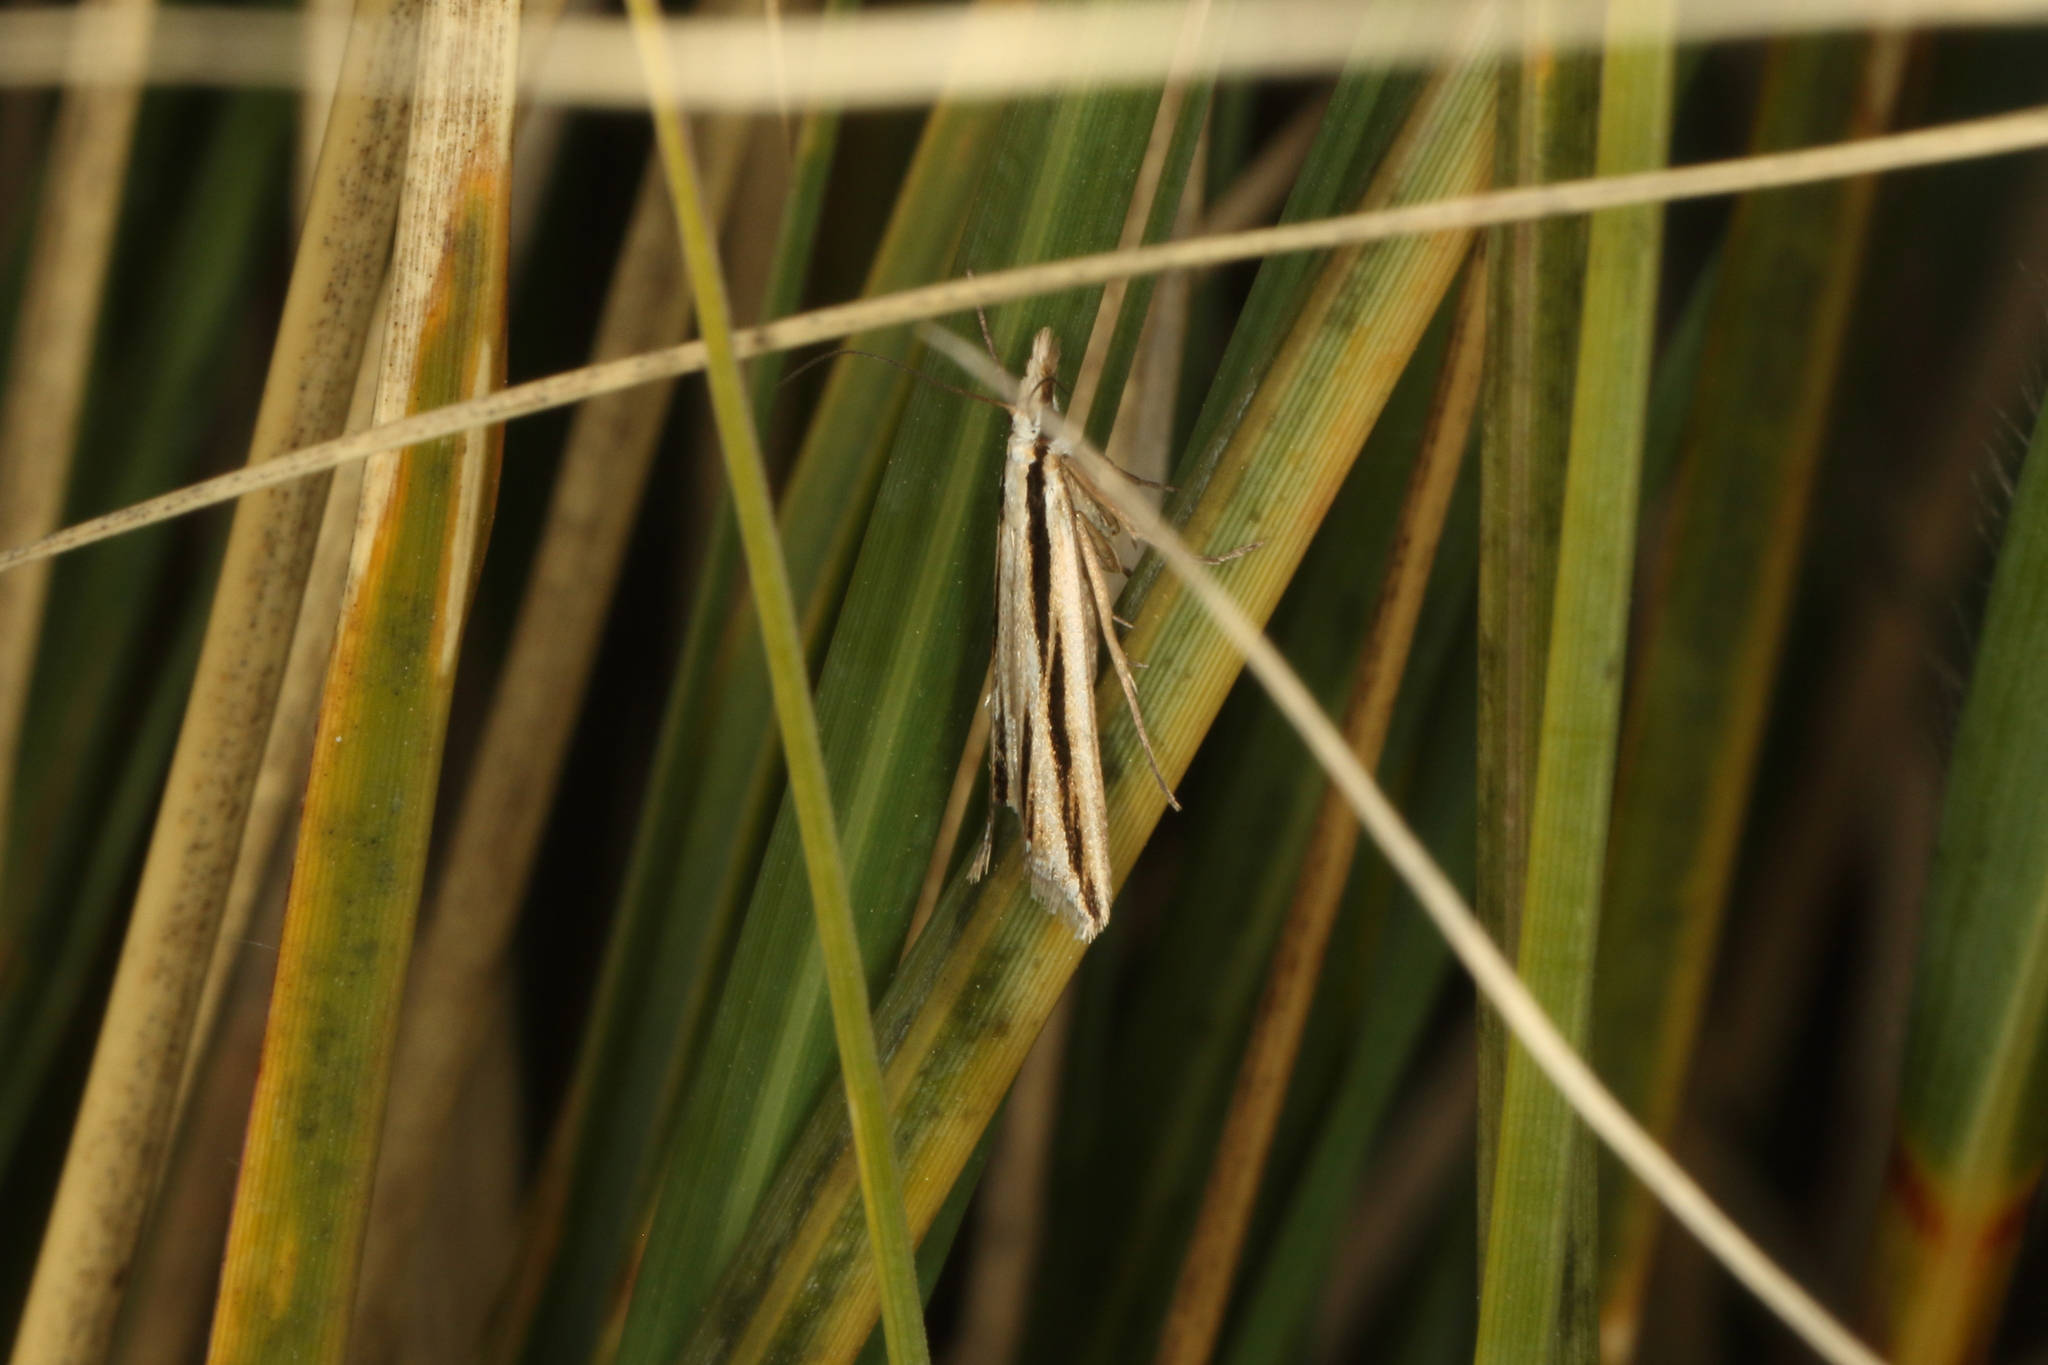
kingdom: Animalia
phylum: Arthropoda
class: Insecta
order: Lepidoptera
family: Crambidae
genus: Eudonia
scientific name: Eudonia trivirgata
